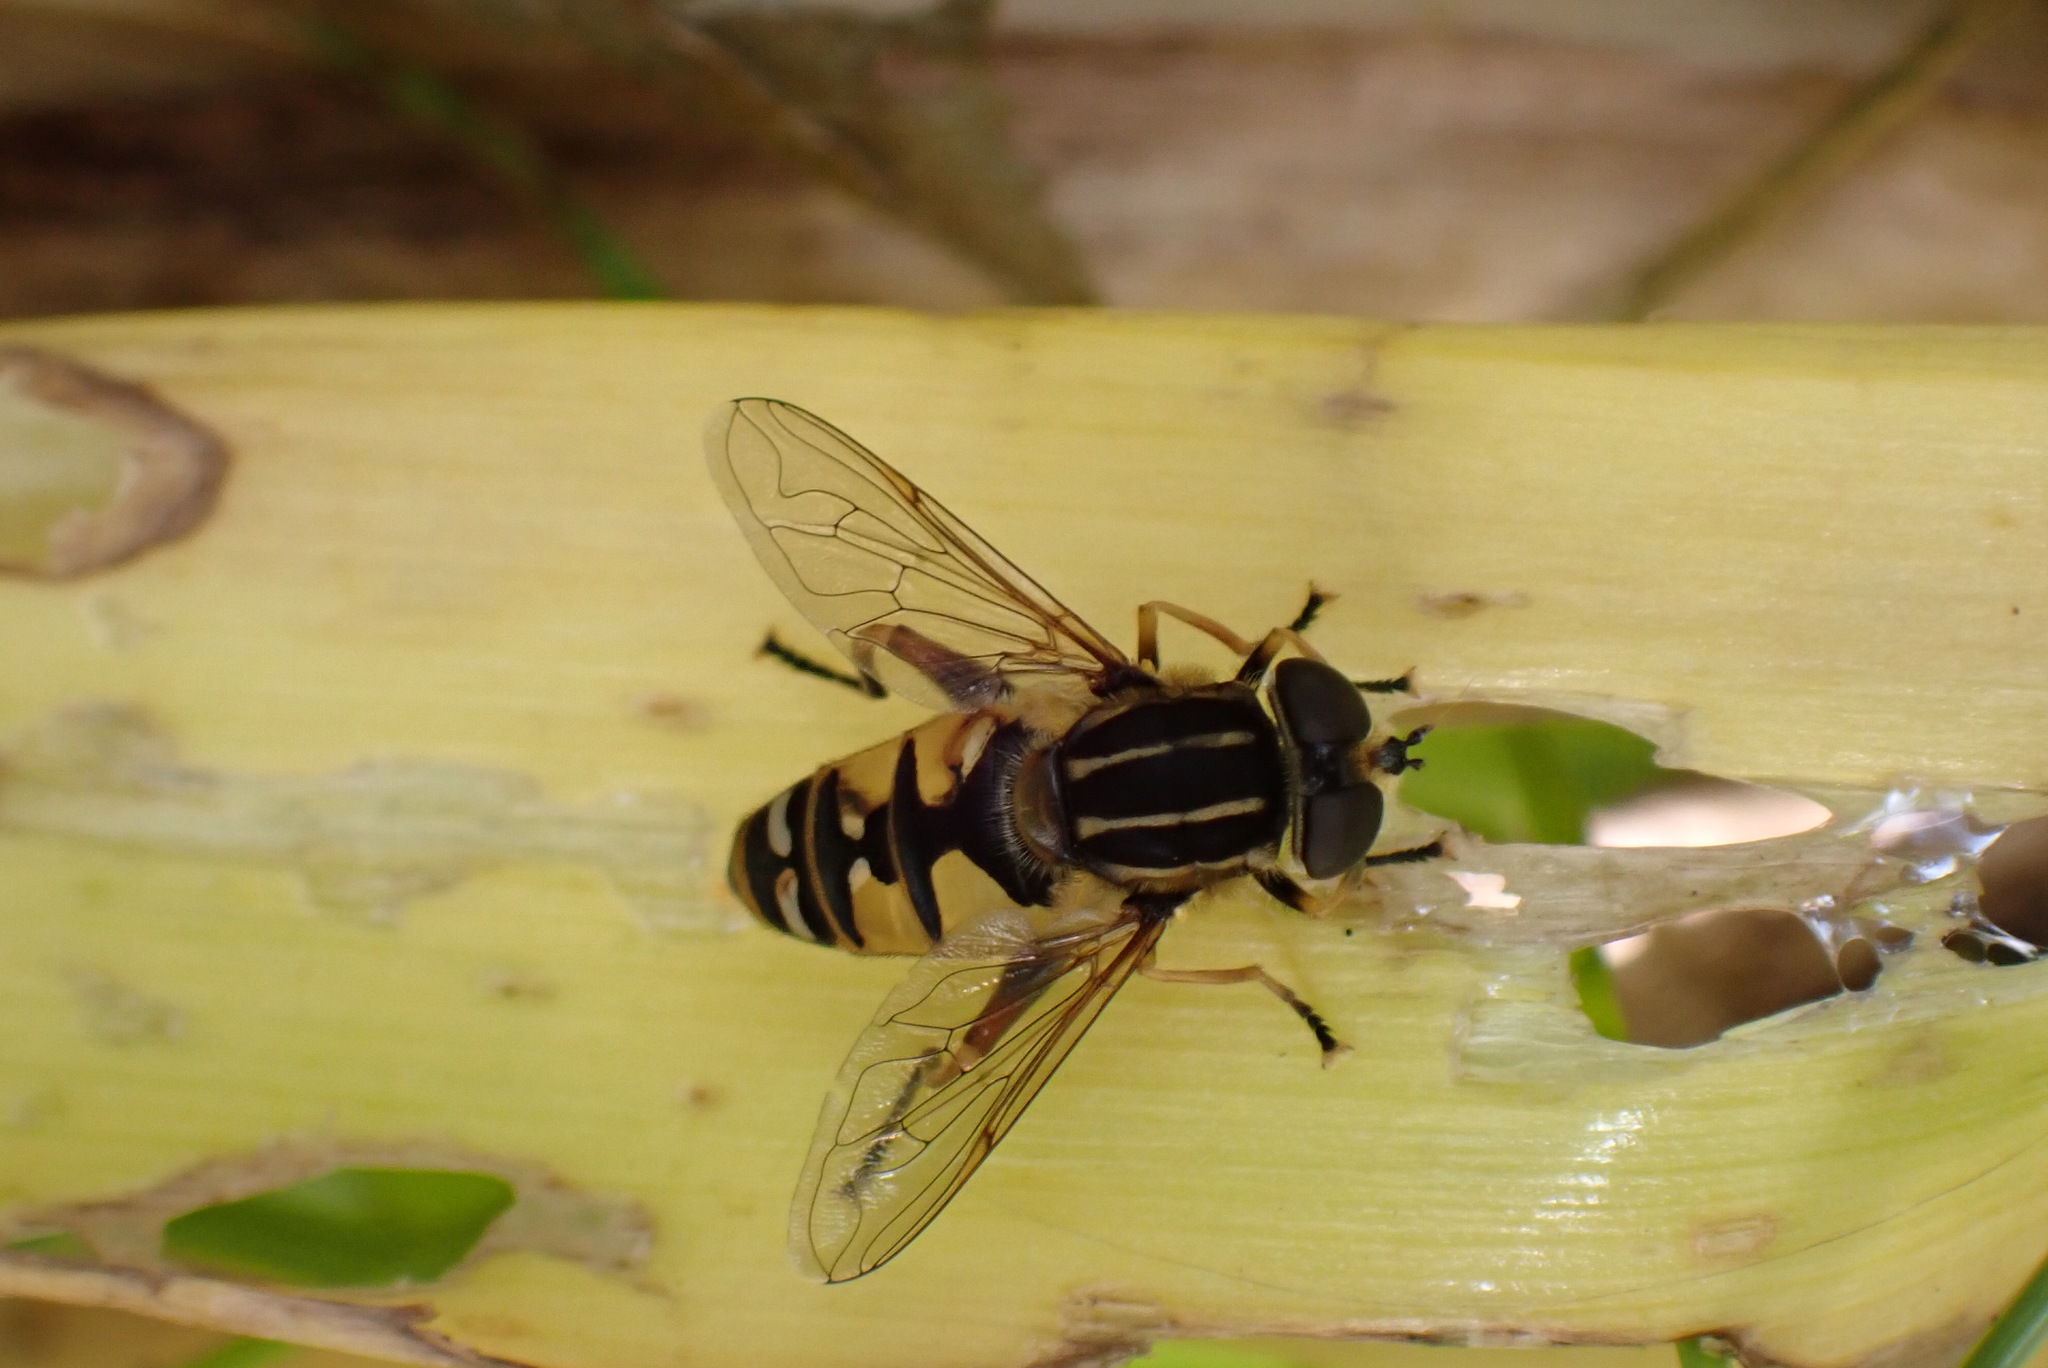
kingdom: Animalia
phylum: Arthropoda
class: Insecta
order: Diptera
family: Syrphidae
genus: Helophilus
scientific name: Helophilus pendulus
